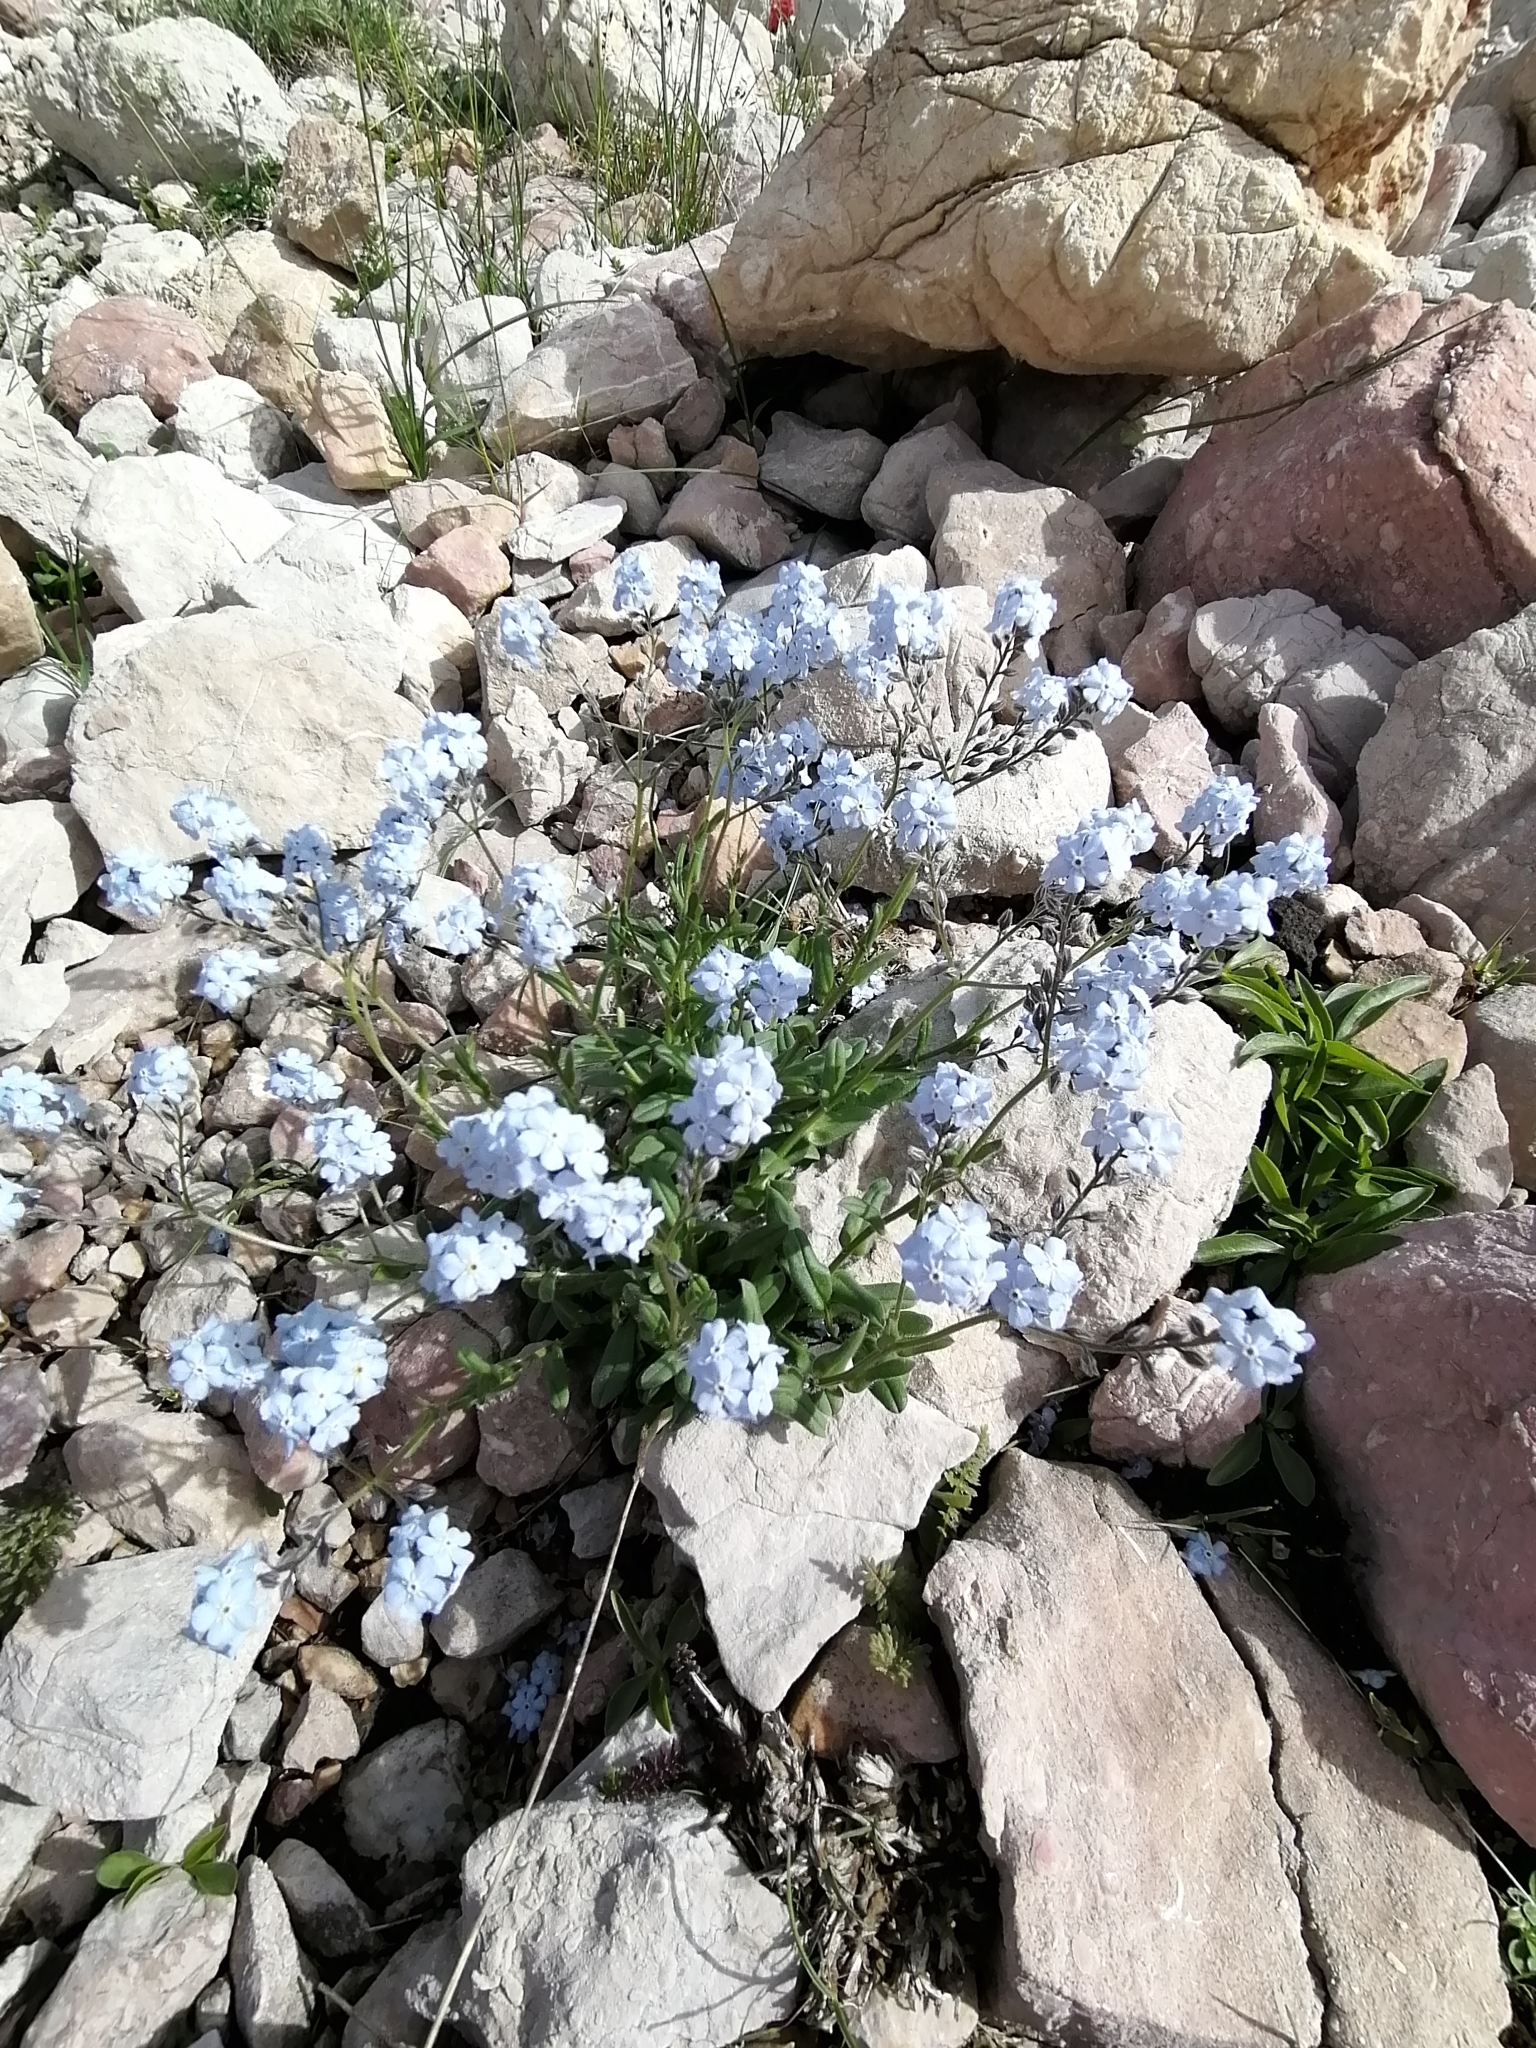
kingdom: Plantae
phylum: Tracheophyta
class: Magnoliopsida
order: Boraginales
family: Boraginaceae
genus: Myosotis
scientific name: Myosotis alpestris
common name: Alpine forget-me-not
